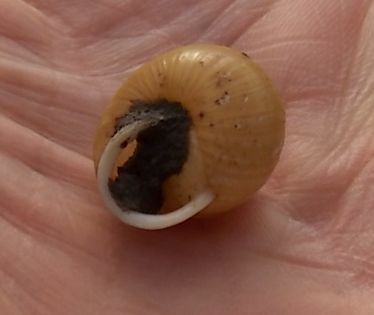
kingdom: Animalia
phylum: Mollusca
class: Gastropoda
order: Stylommatophora
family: Helicidae
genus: Cepaea
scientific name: Cepaea hortensis
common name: White-lip gardensnail
